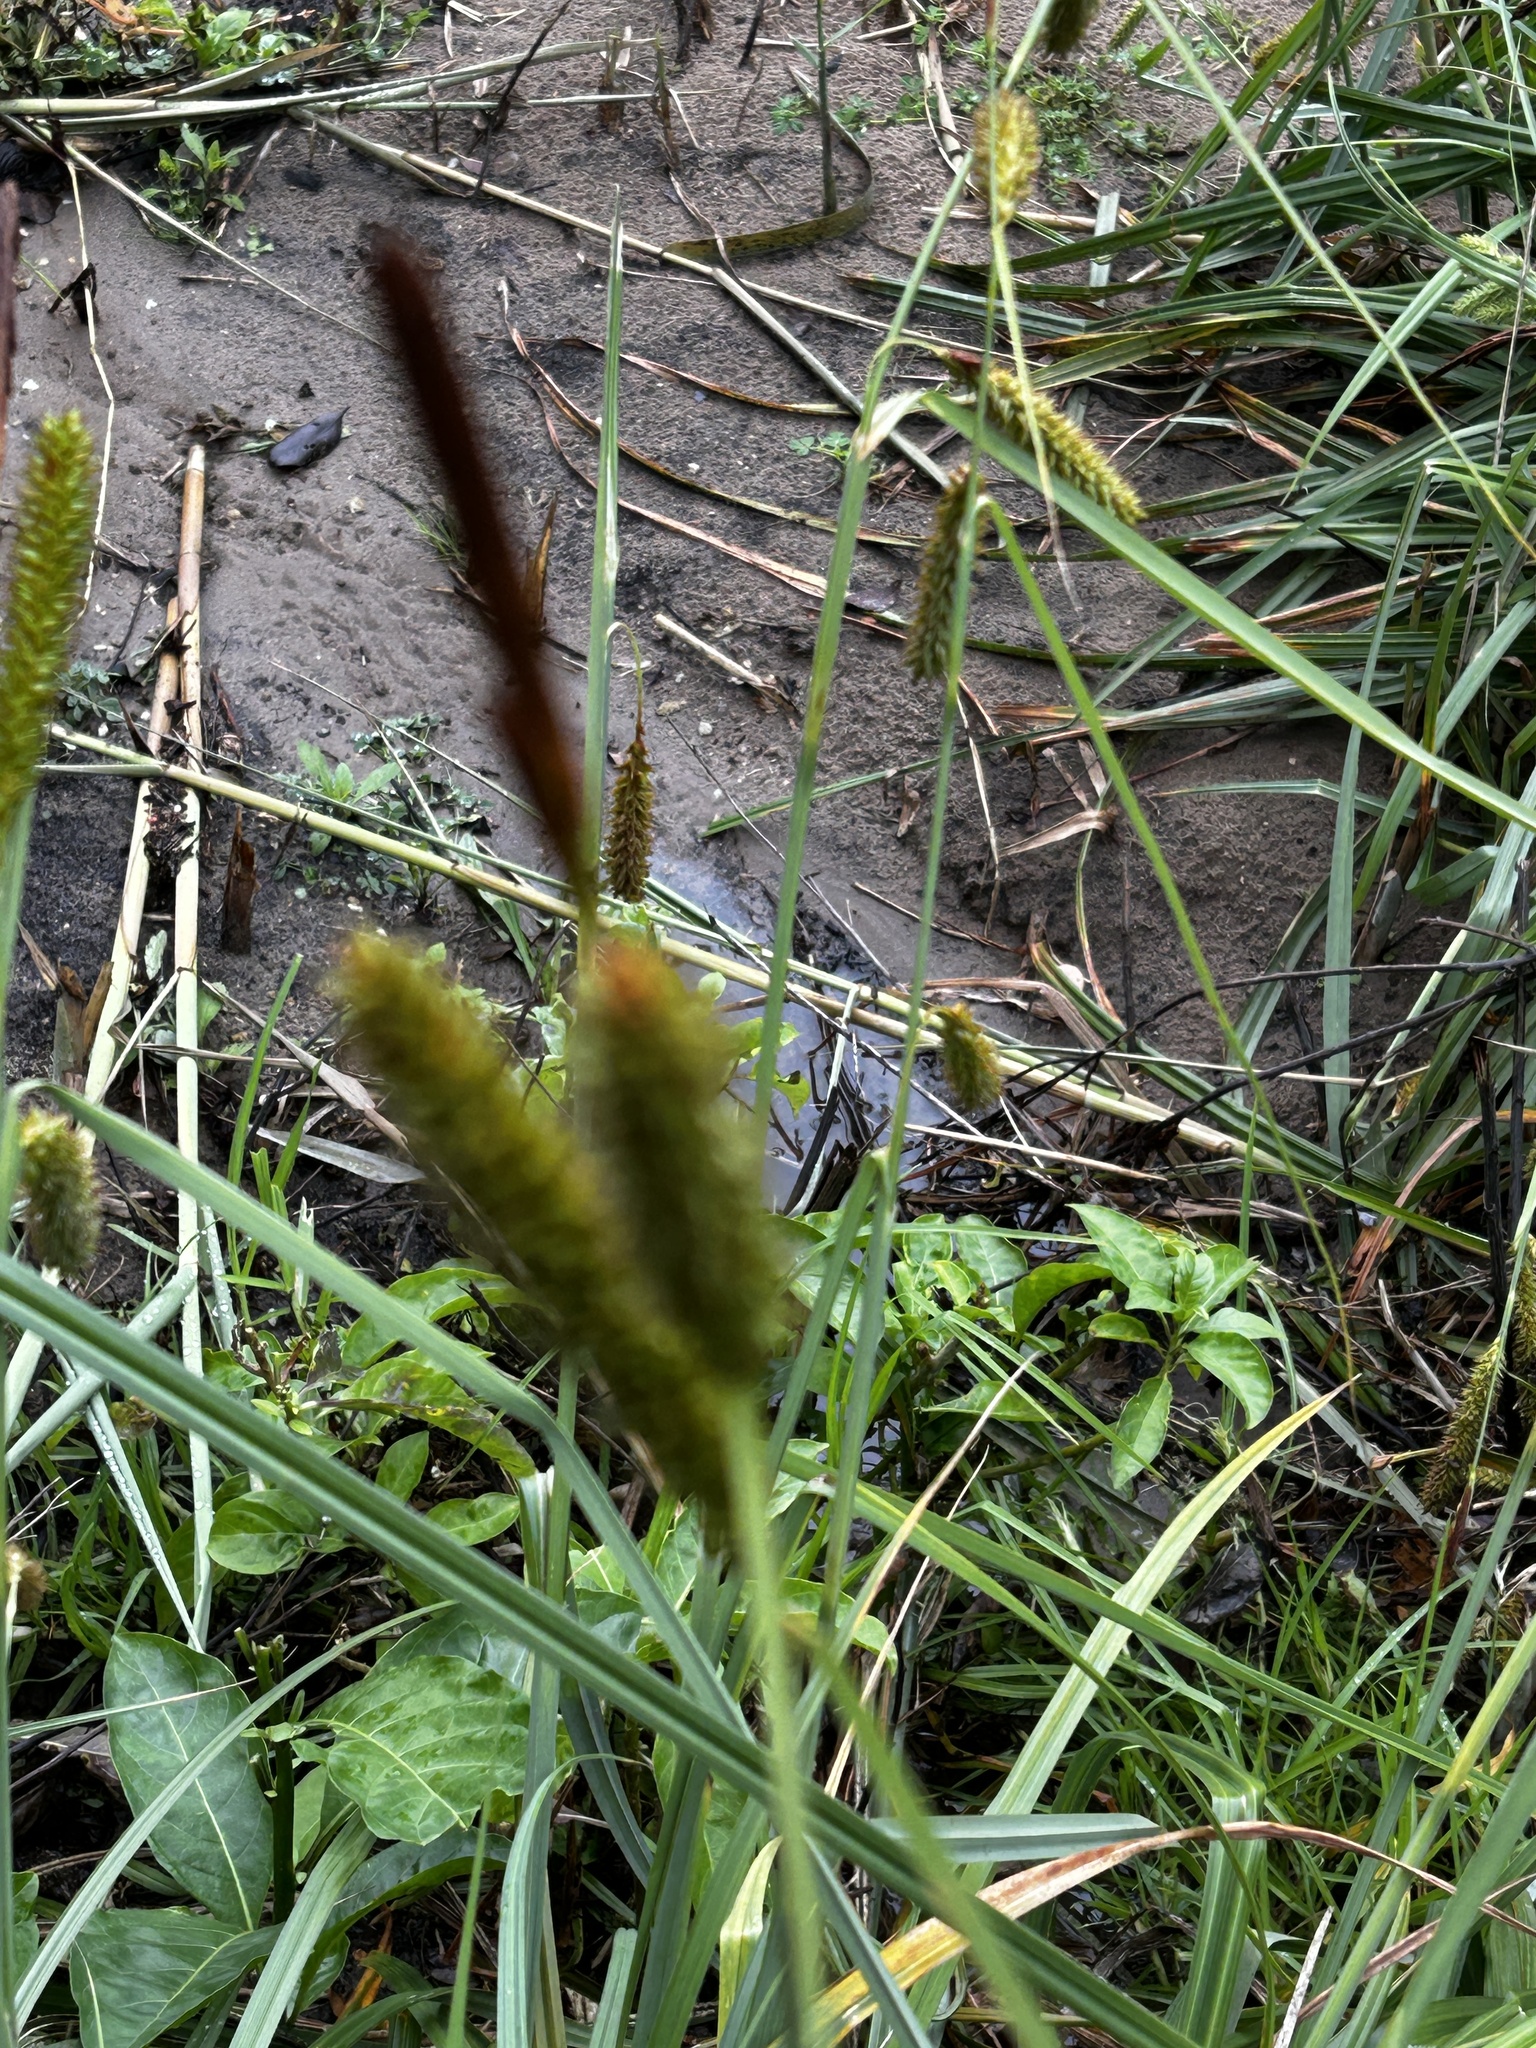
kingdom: Plantae
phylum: Tracheophyta
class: Liliopsida
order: Poales
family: Cyperaceae
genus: Carex
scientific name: Carex aethiopica
